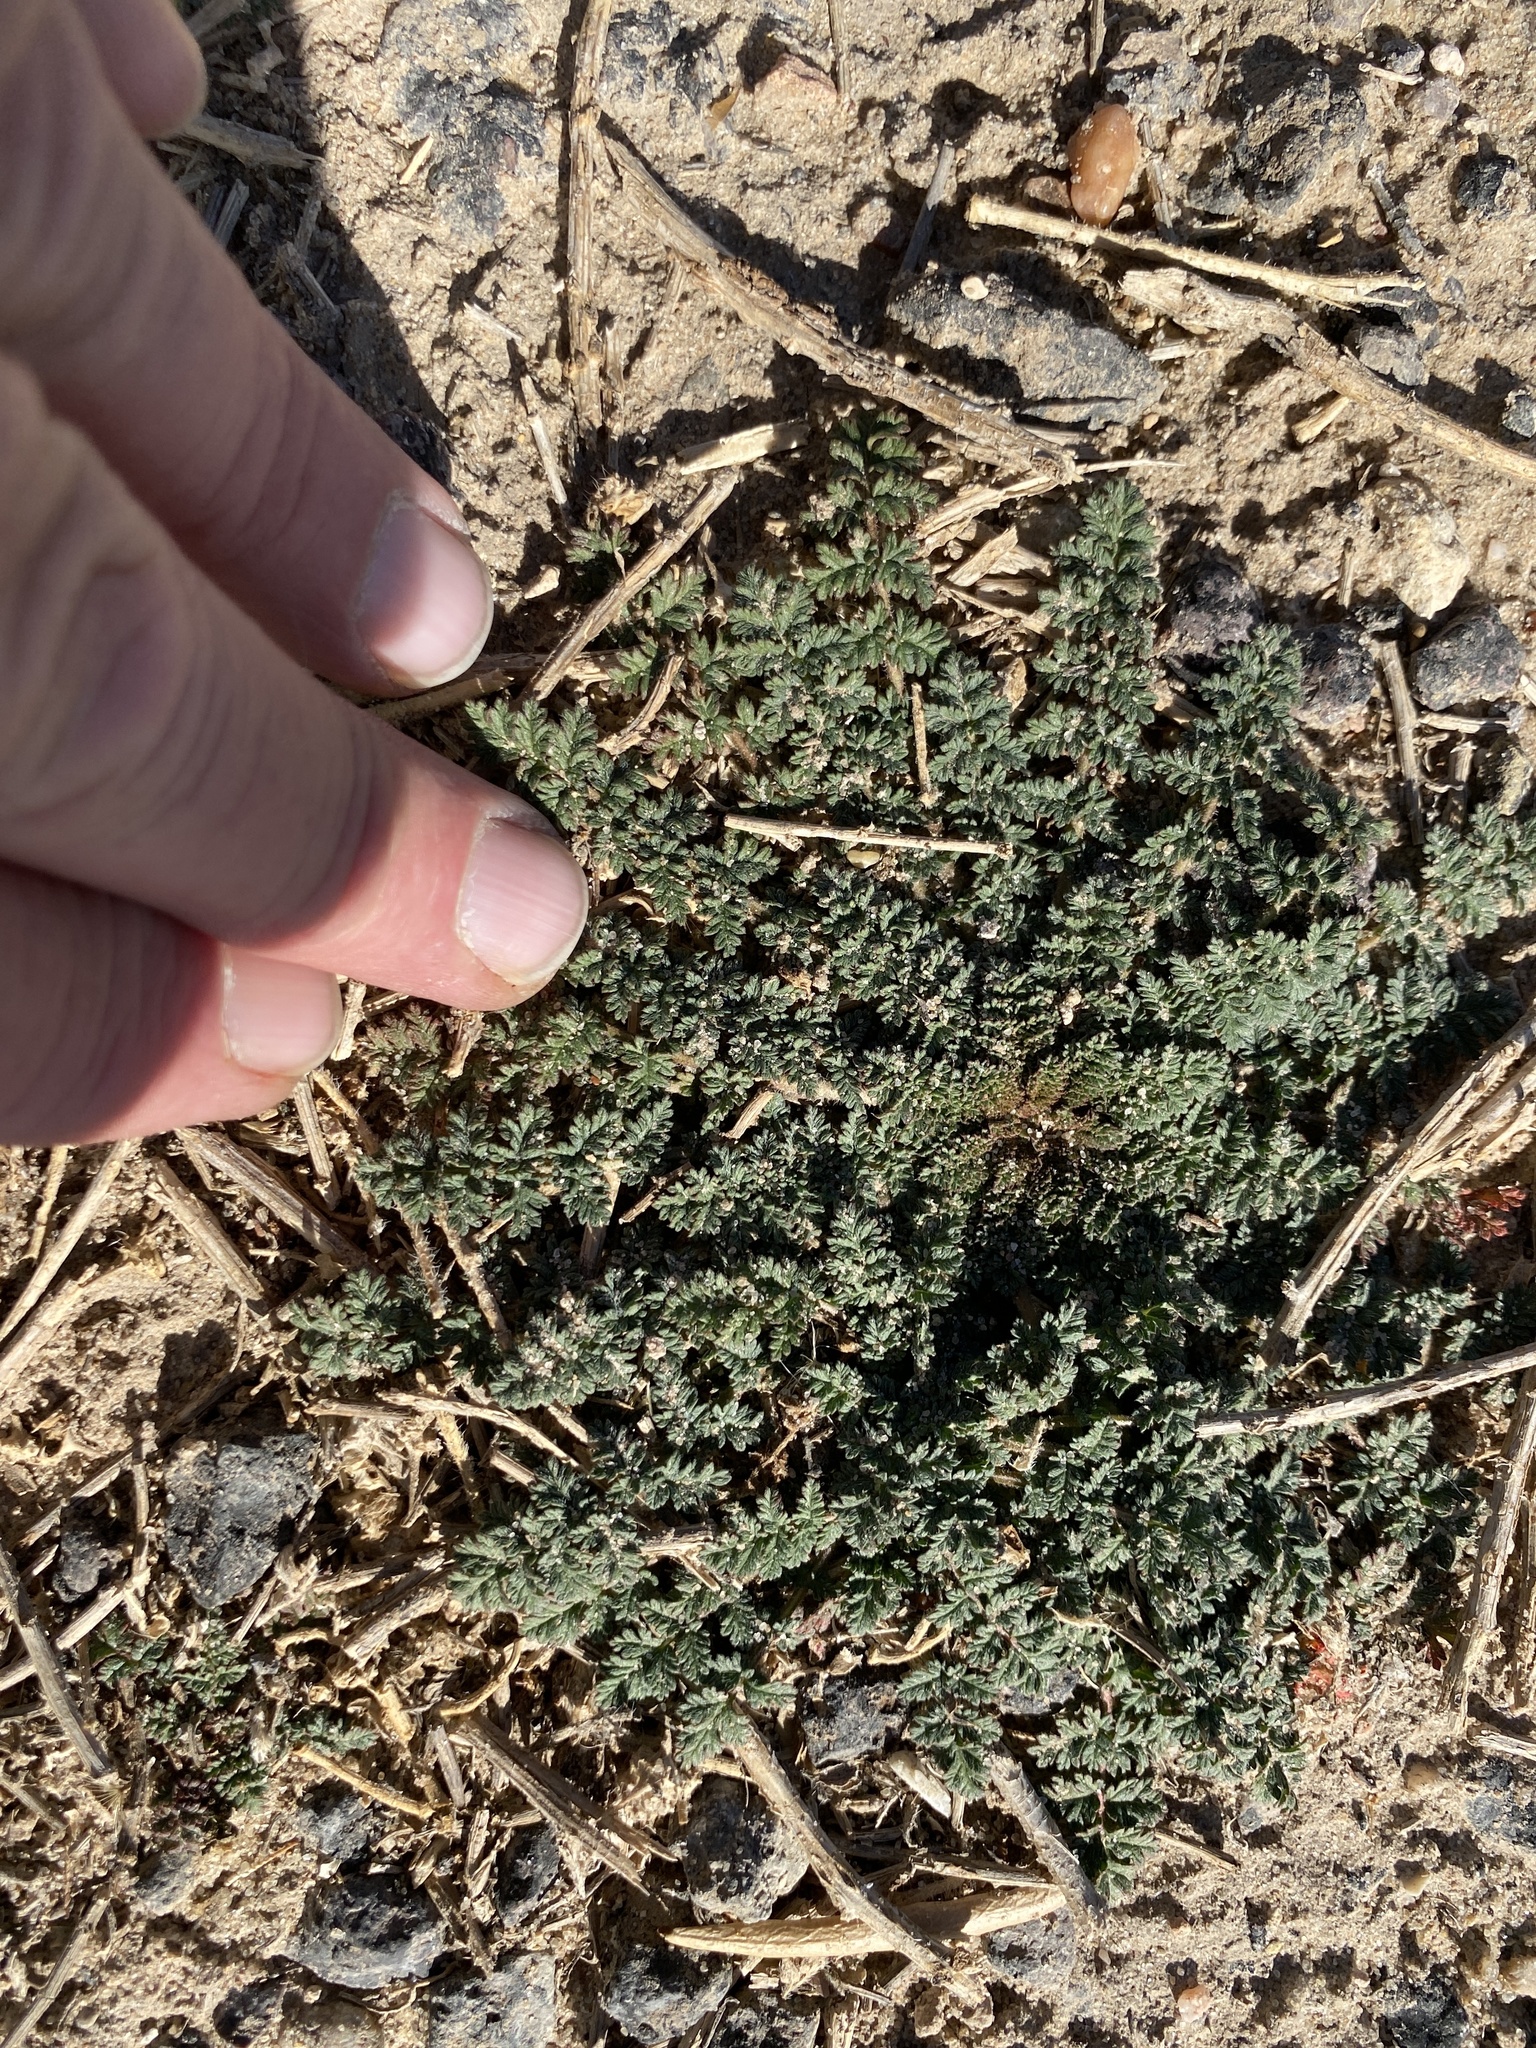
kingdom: Plantae
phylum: Tracheophyta
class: Magnoliopsida
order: Geraniales
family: Geraniaceae
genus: Erodium
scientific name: Erodium cicutarium
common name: Common stork's-bill
